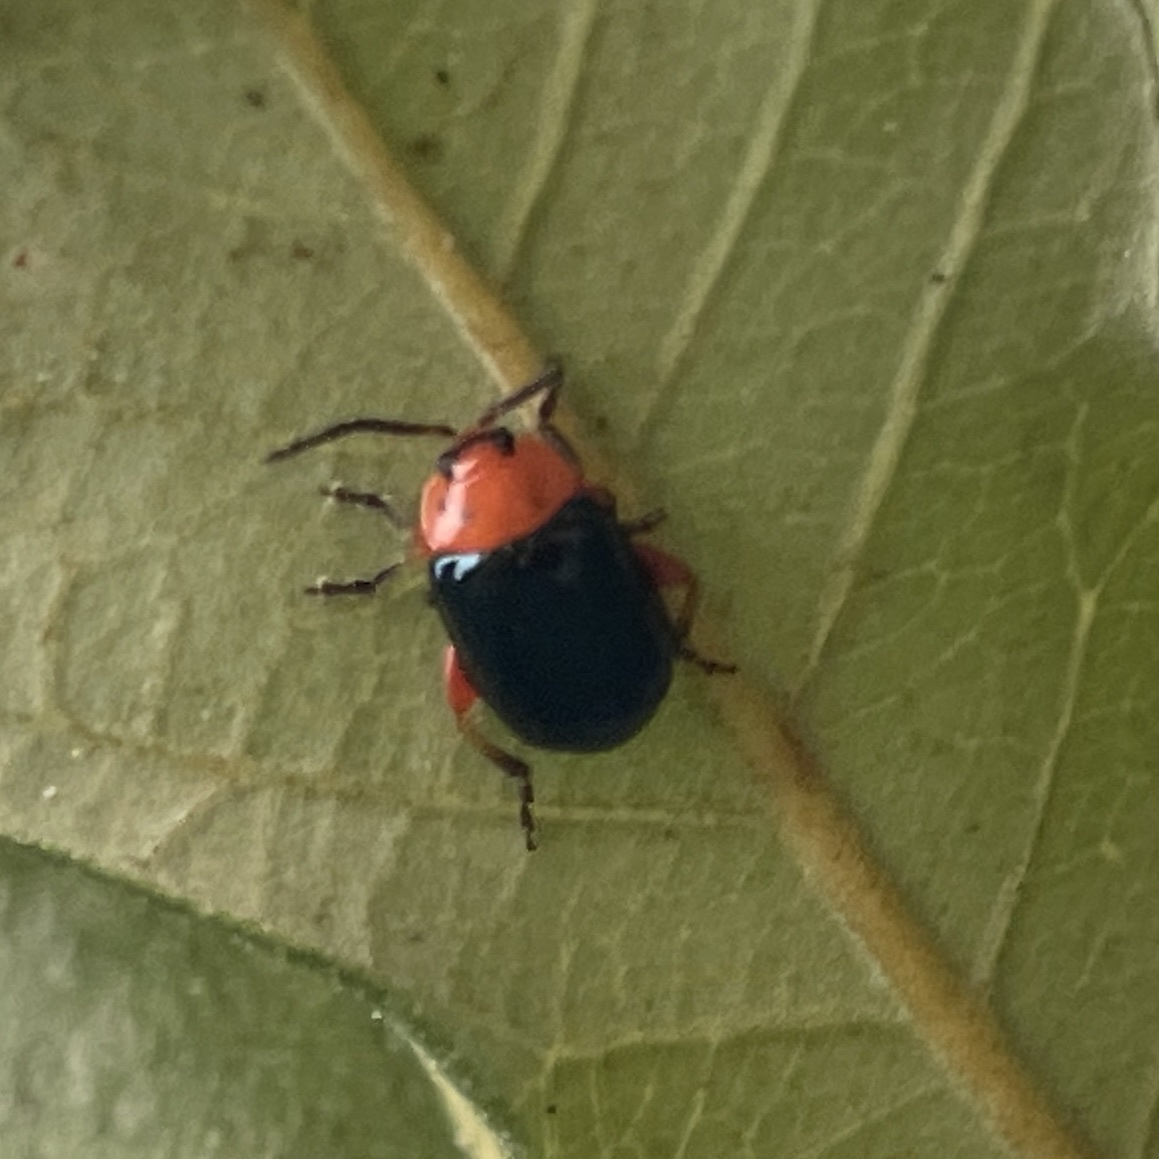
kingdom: Animalia
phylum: Arthropoda
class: Insecta
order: Coleoptera
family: Chrysomelidae
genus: Asphaera
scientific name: Asphaera lustrans
